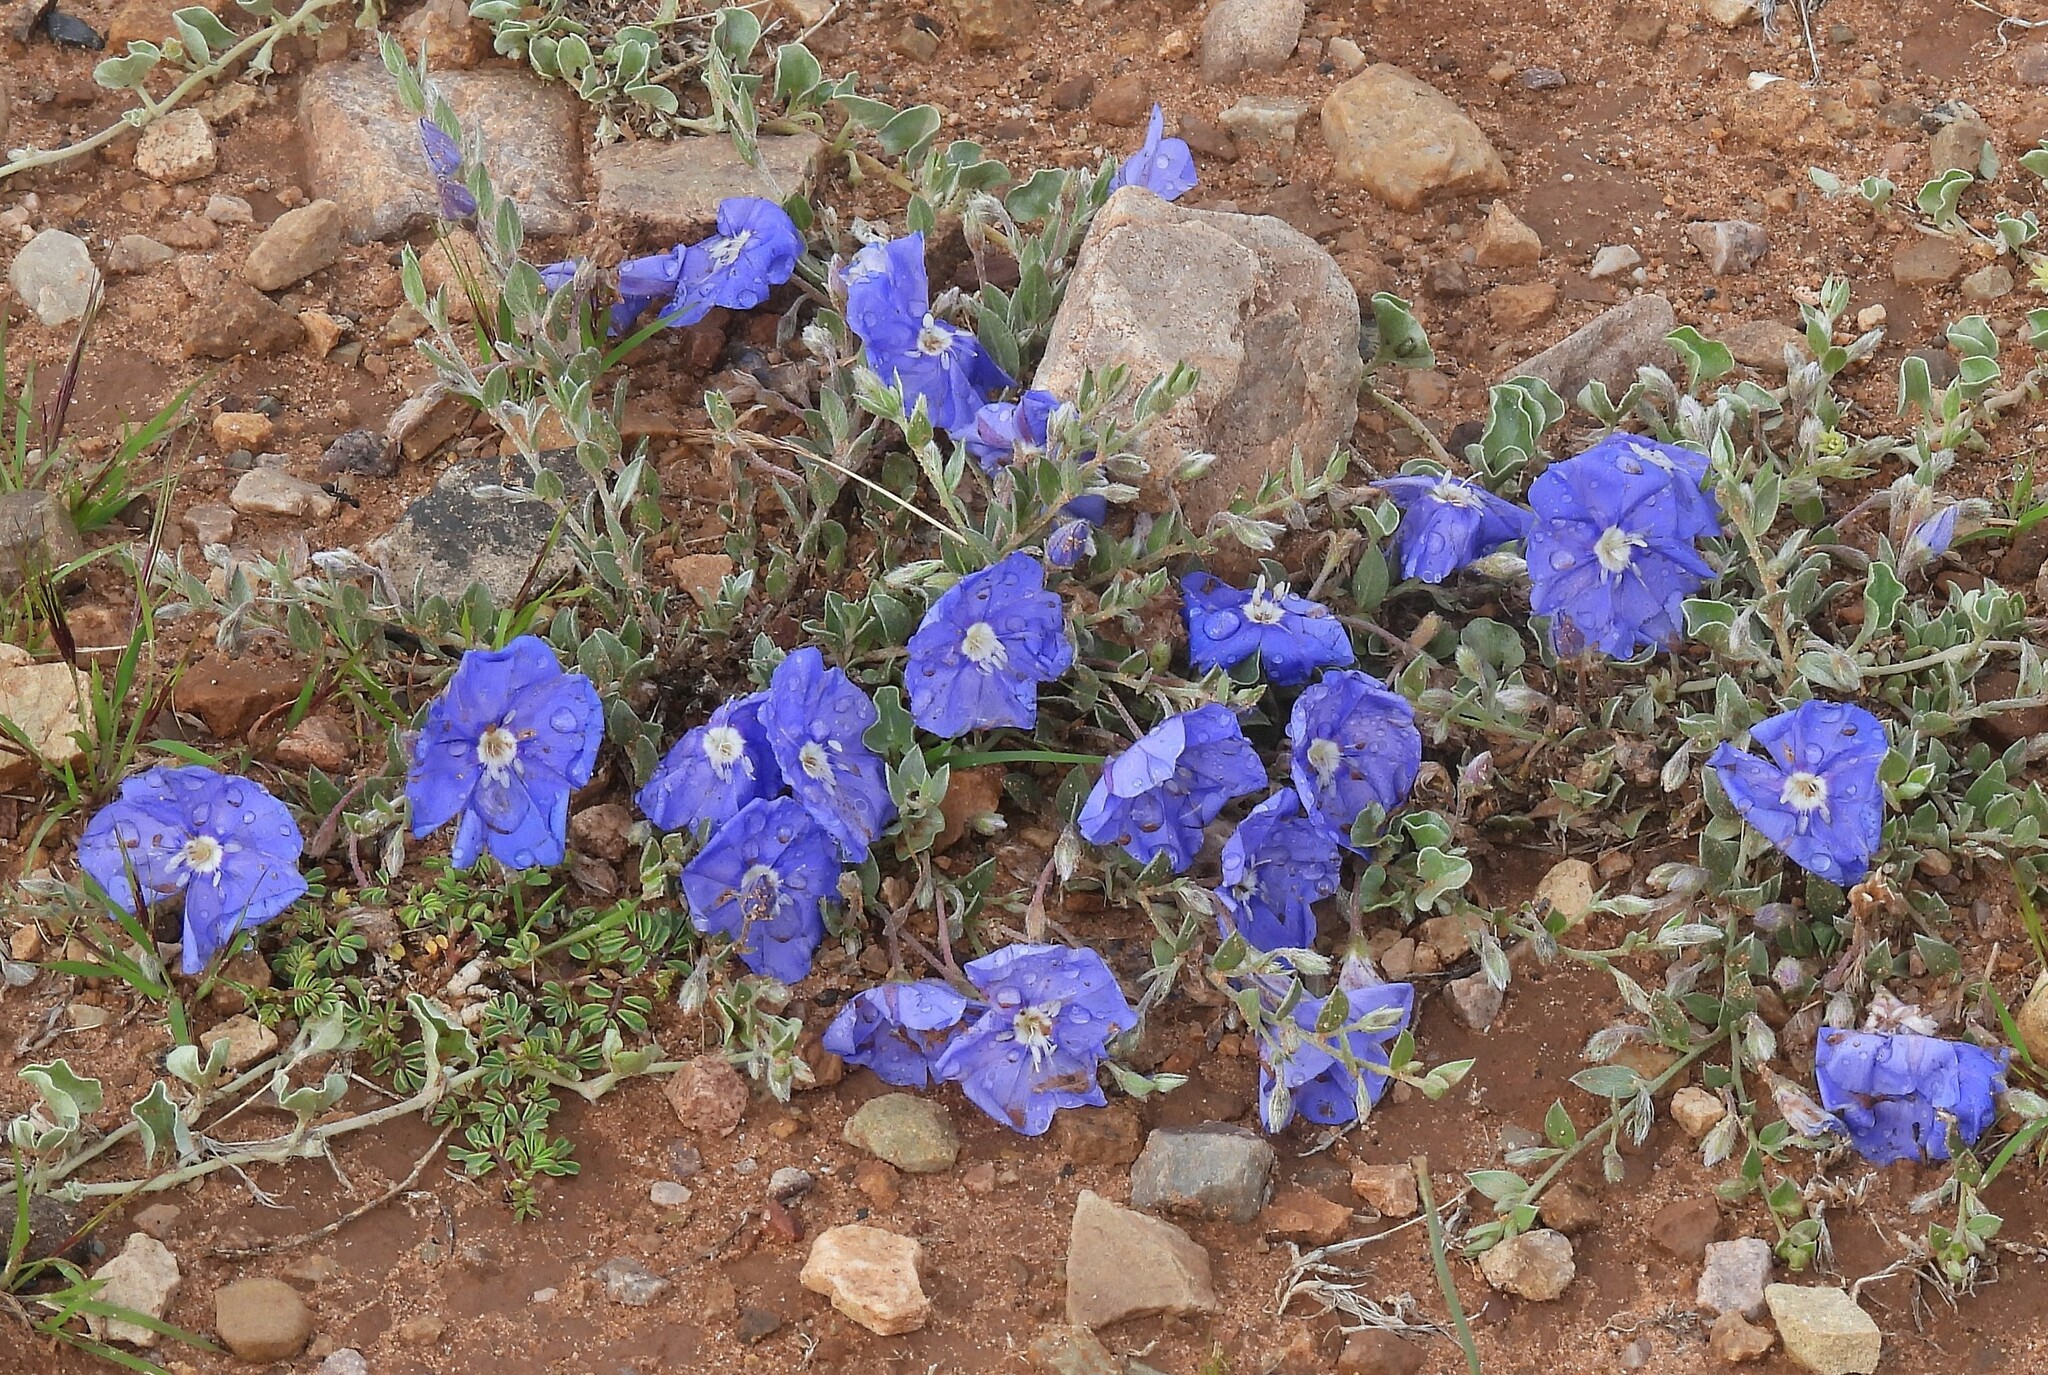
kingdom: Plantae
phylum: Tracheophyta
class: Magnoliopsida
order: Solanales
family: Convolvulaceae
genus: Evolvulus
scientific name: Evolvulus arizonicus
